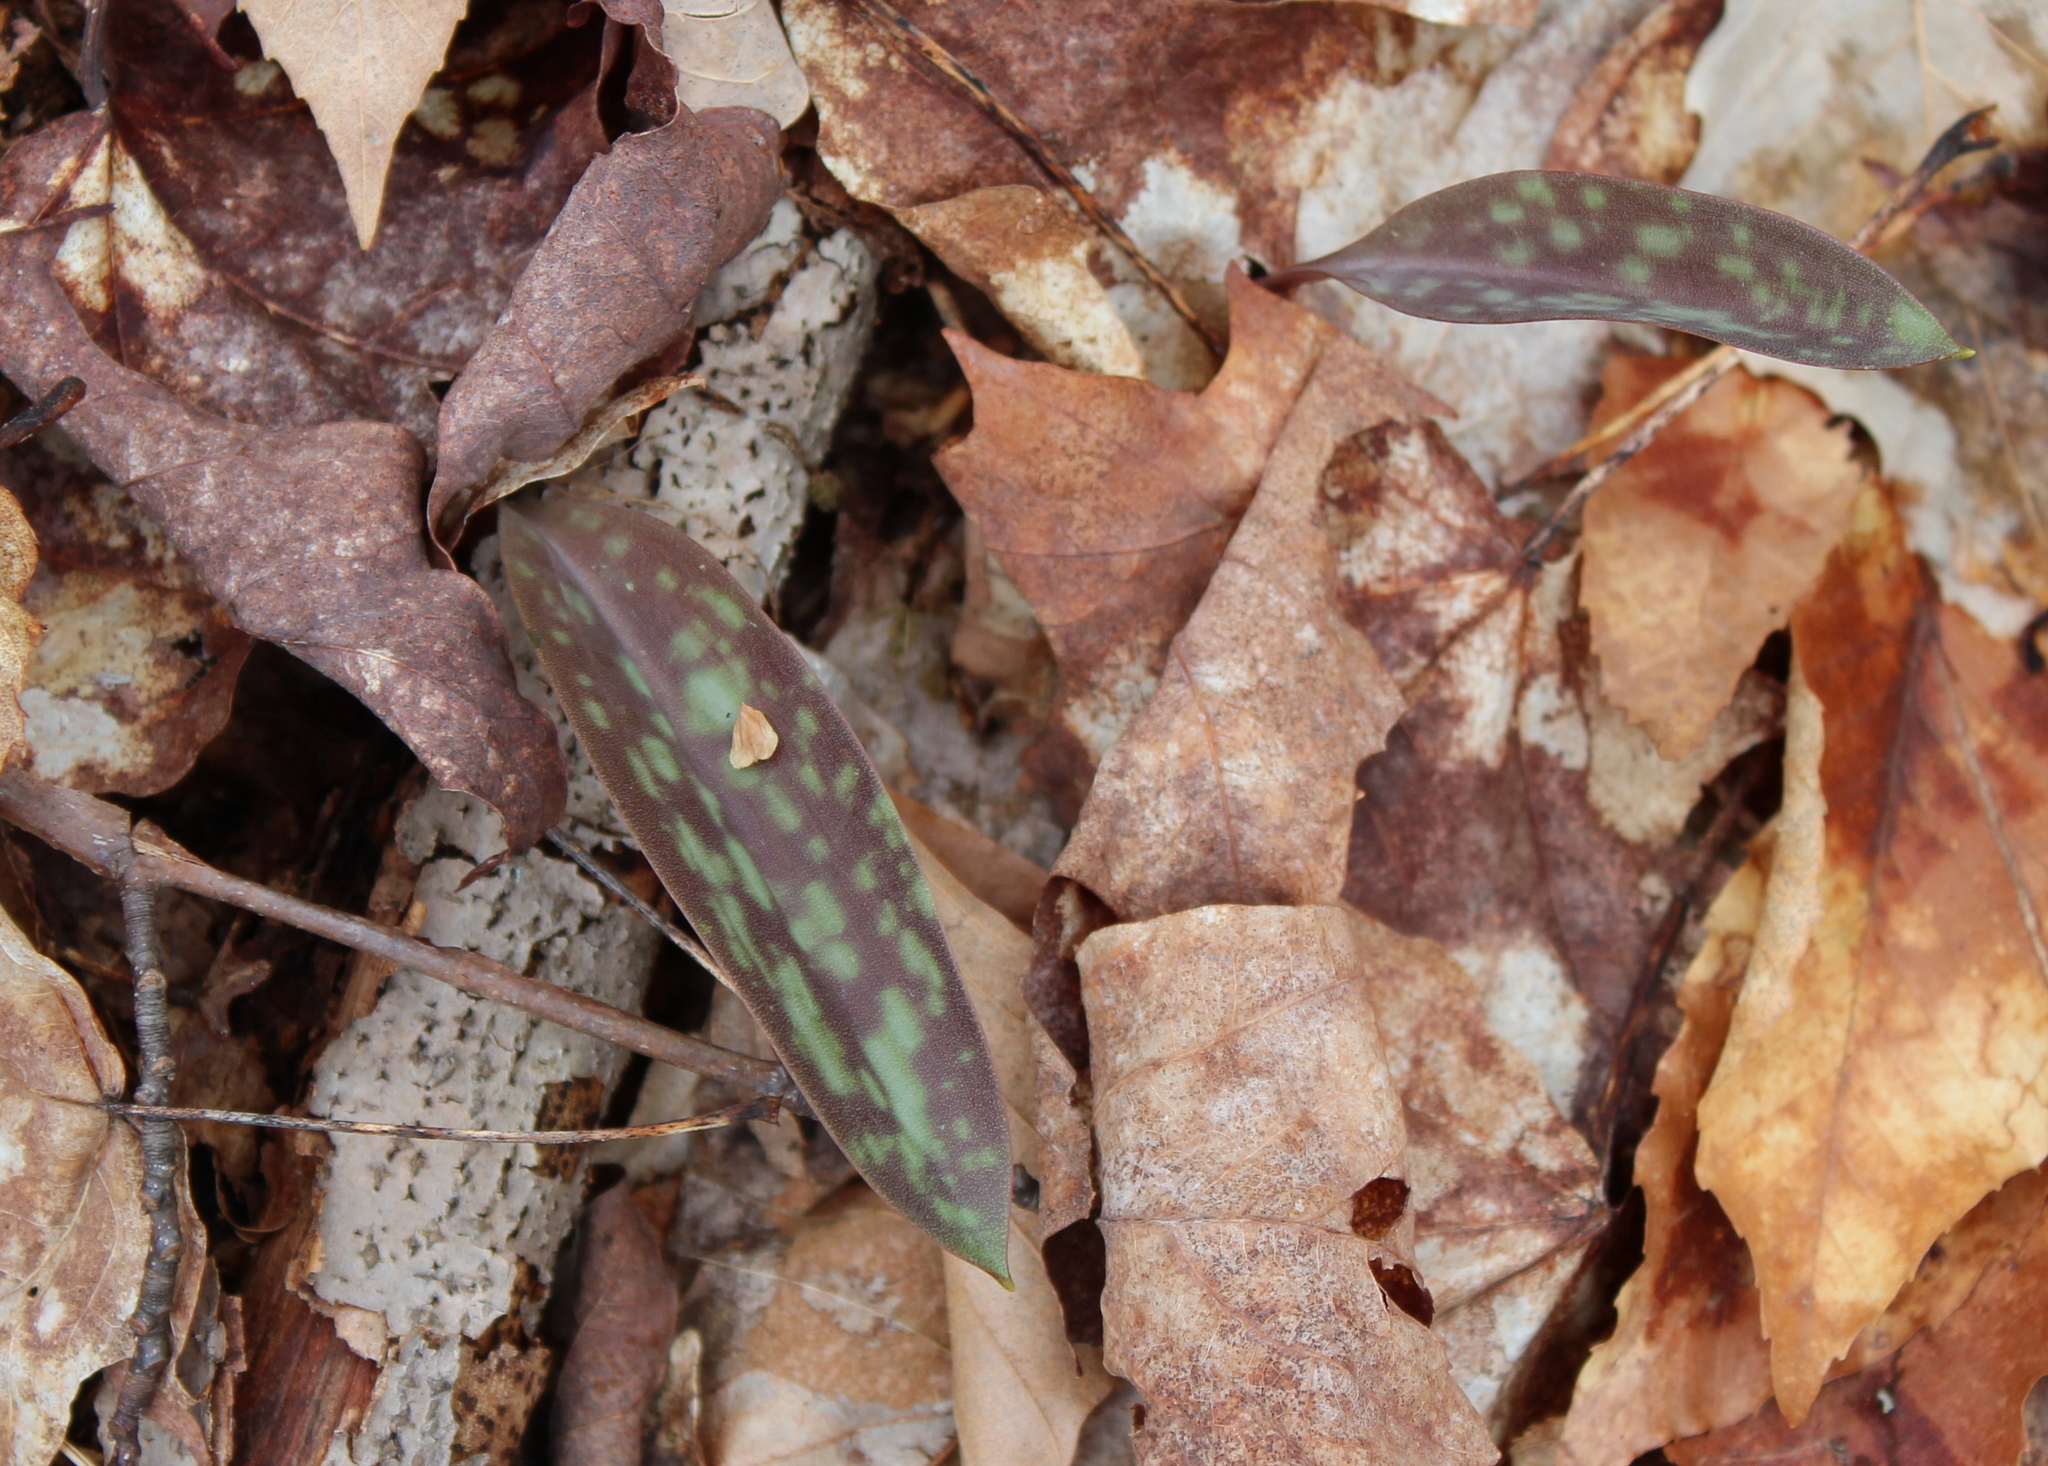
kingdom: Plantae
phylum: Tracheophyta
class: Liliopsida
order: Liliales
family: Liliaceae
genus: Erythronium
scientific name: Erythronium americanum
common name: Yellow adder's-tongue
